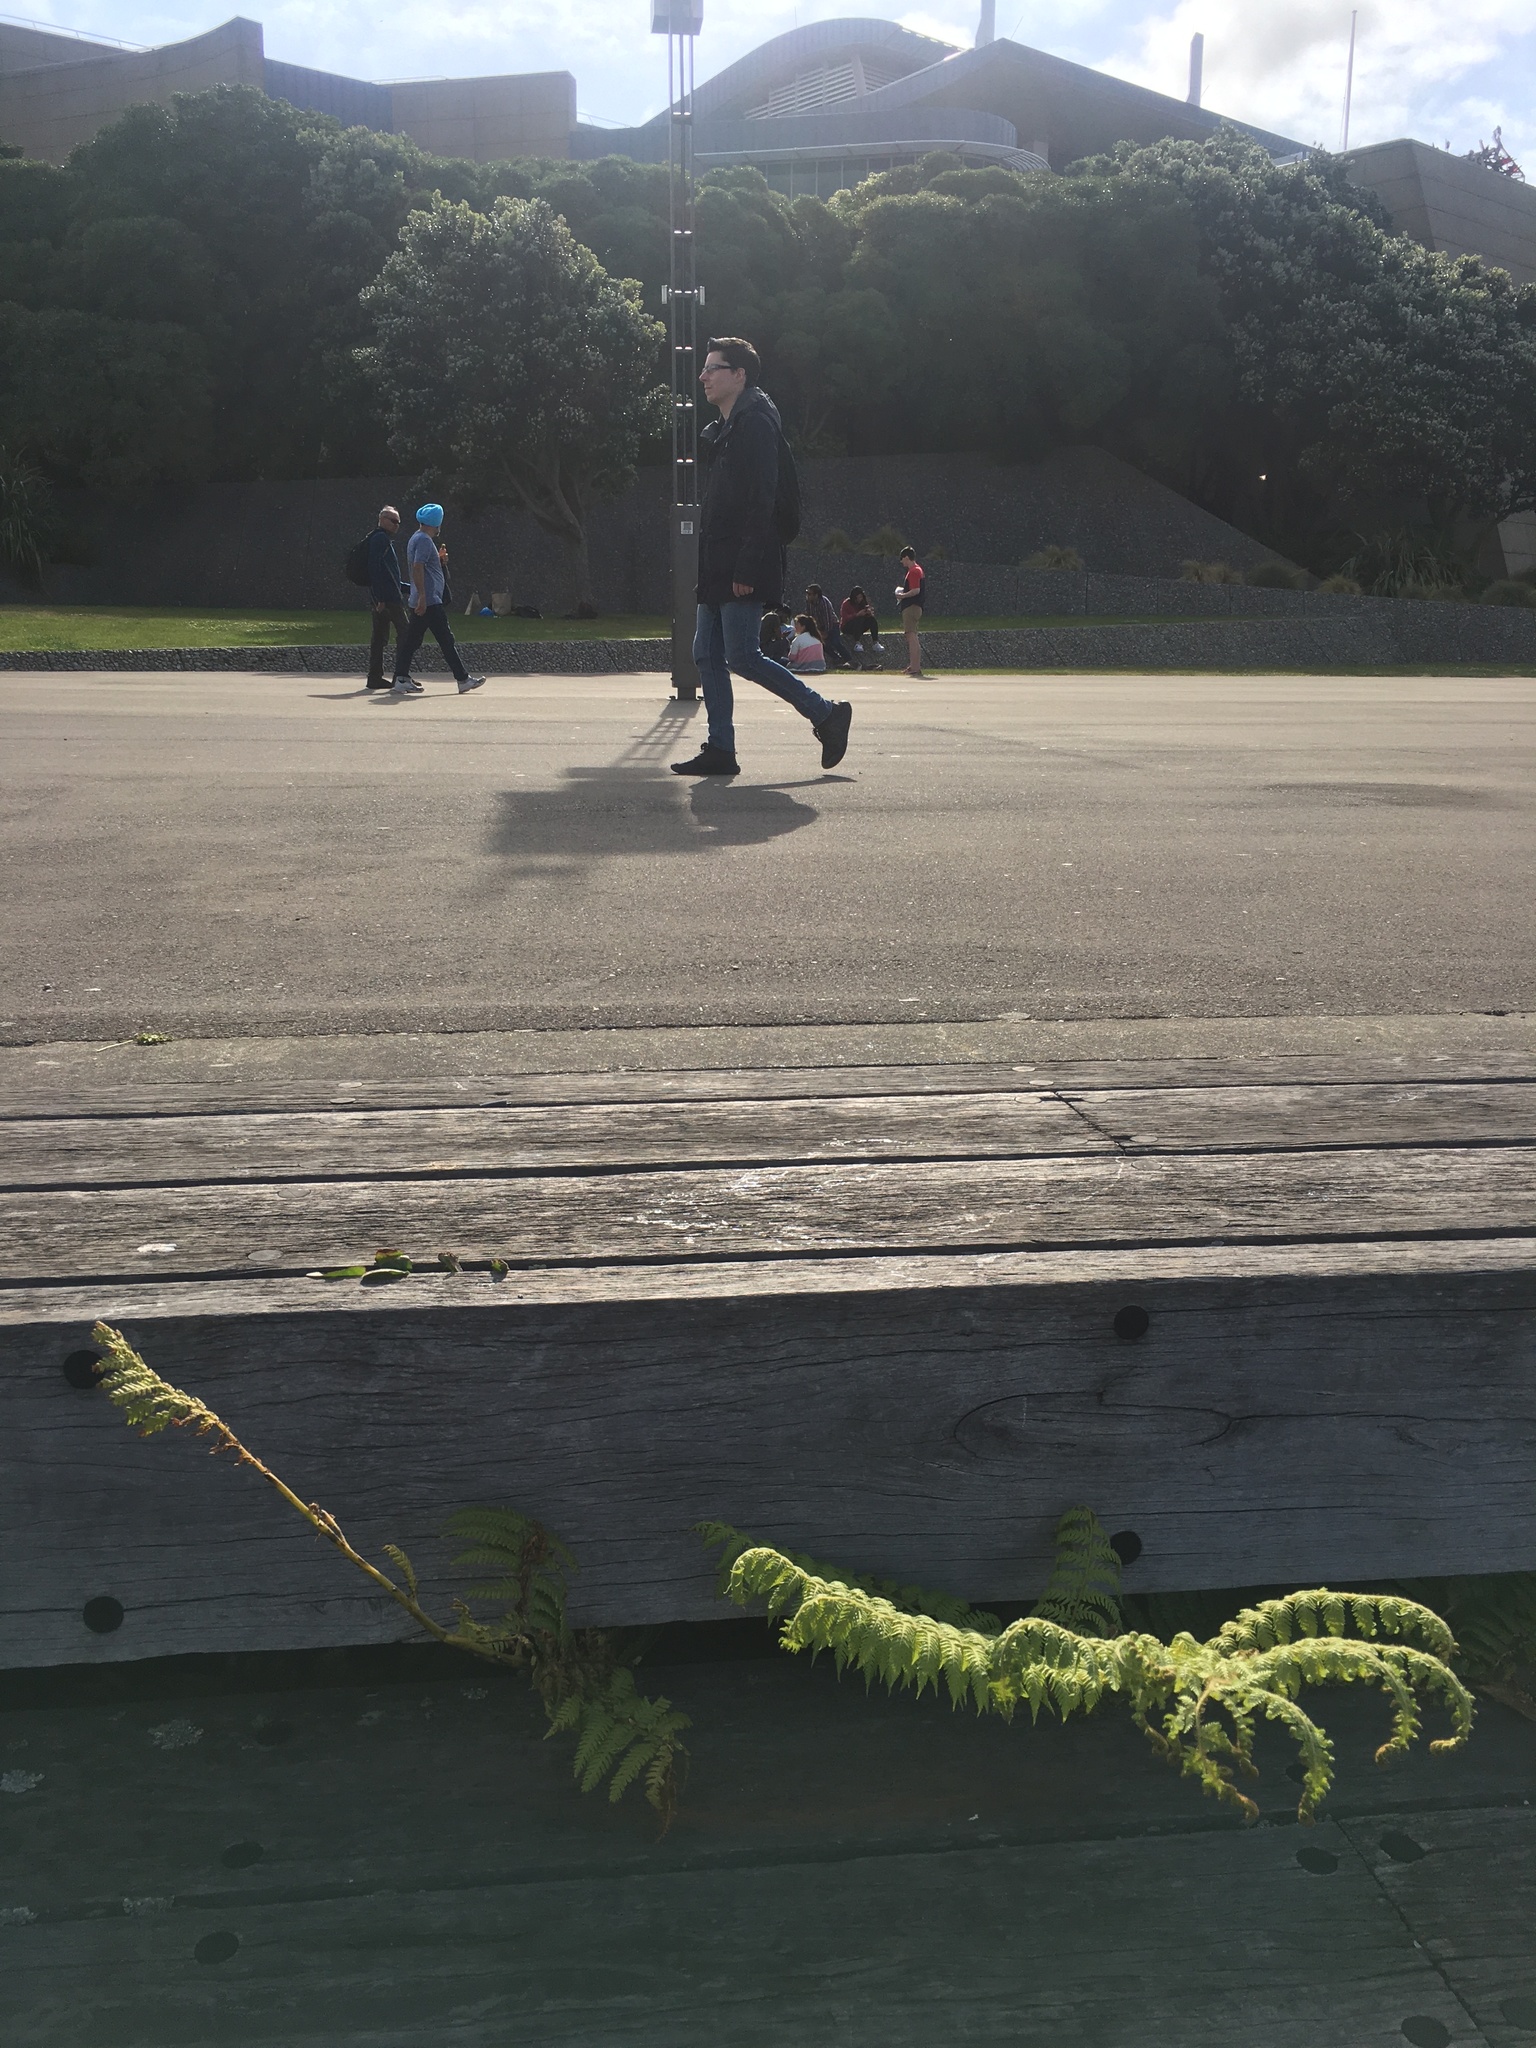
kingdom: Plantae
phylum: Tracheophyta
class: Polypodiopsida
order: Cyatheales
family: Cyatheaceae
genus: Sphaeropteris
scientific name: Sphaeropteris medullaris
